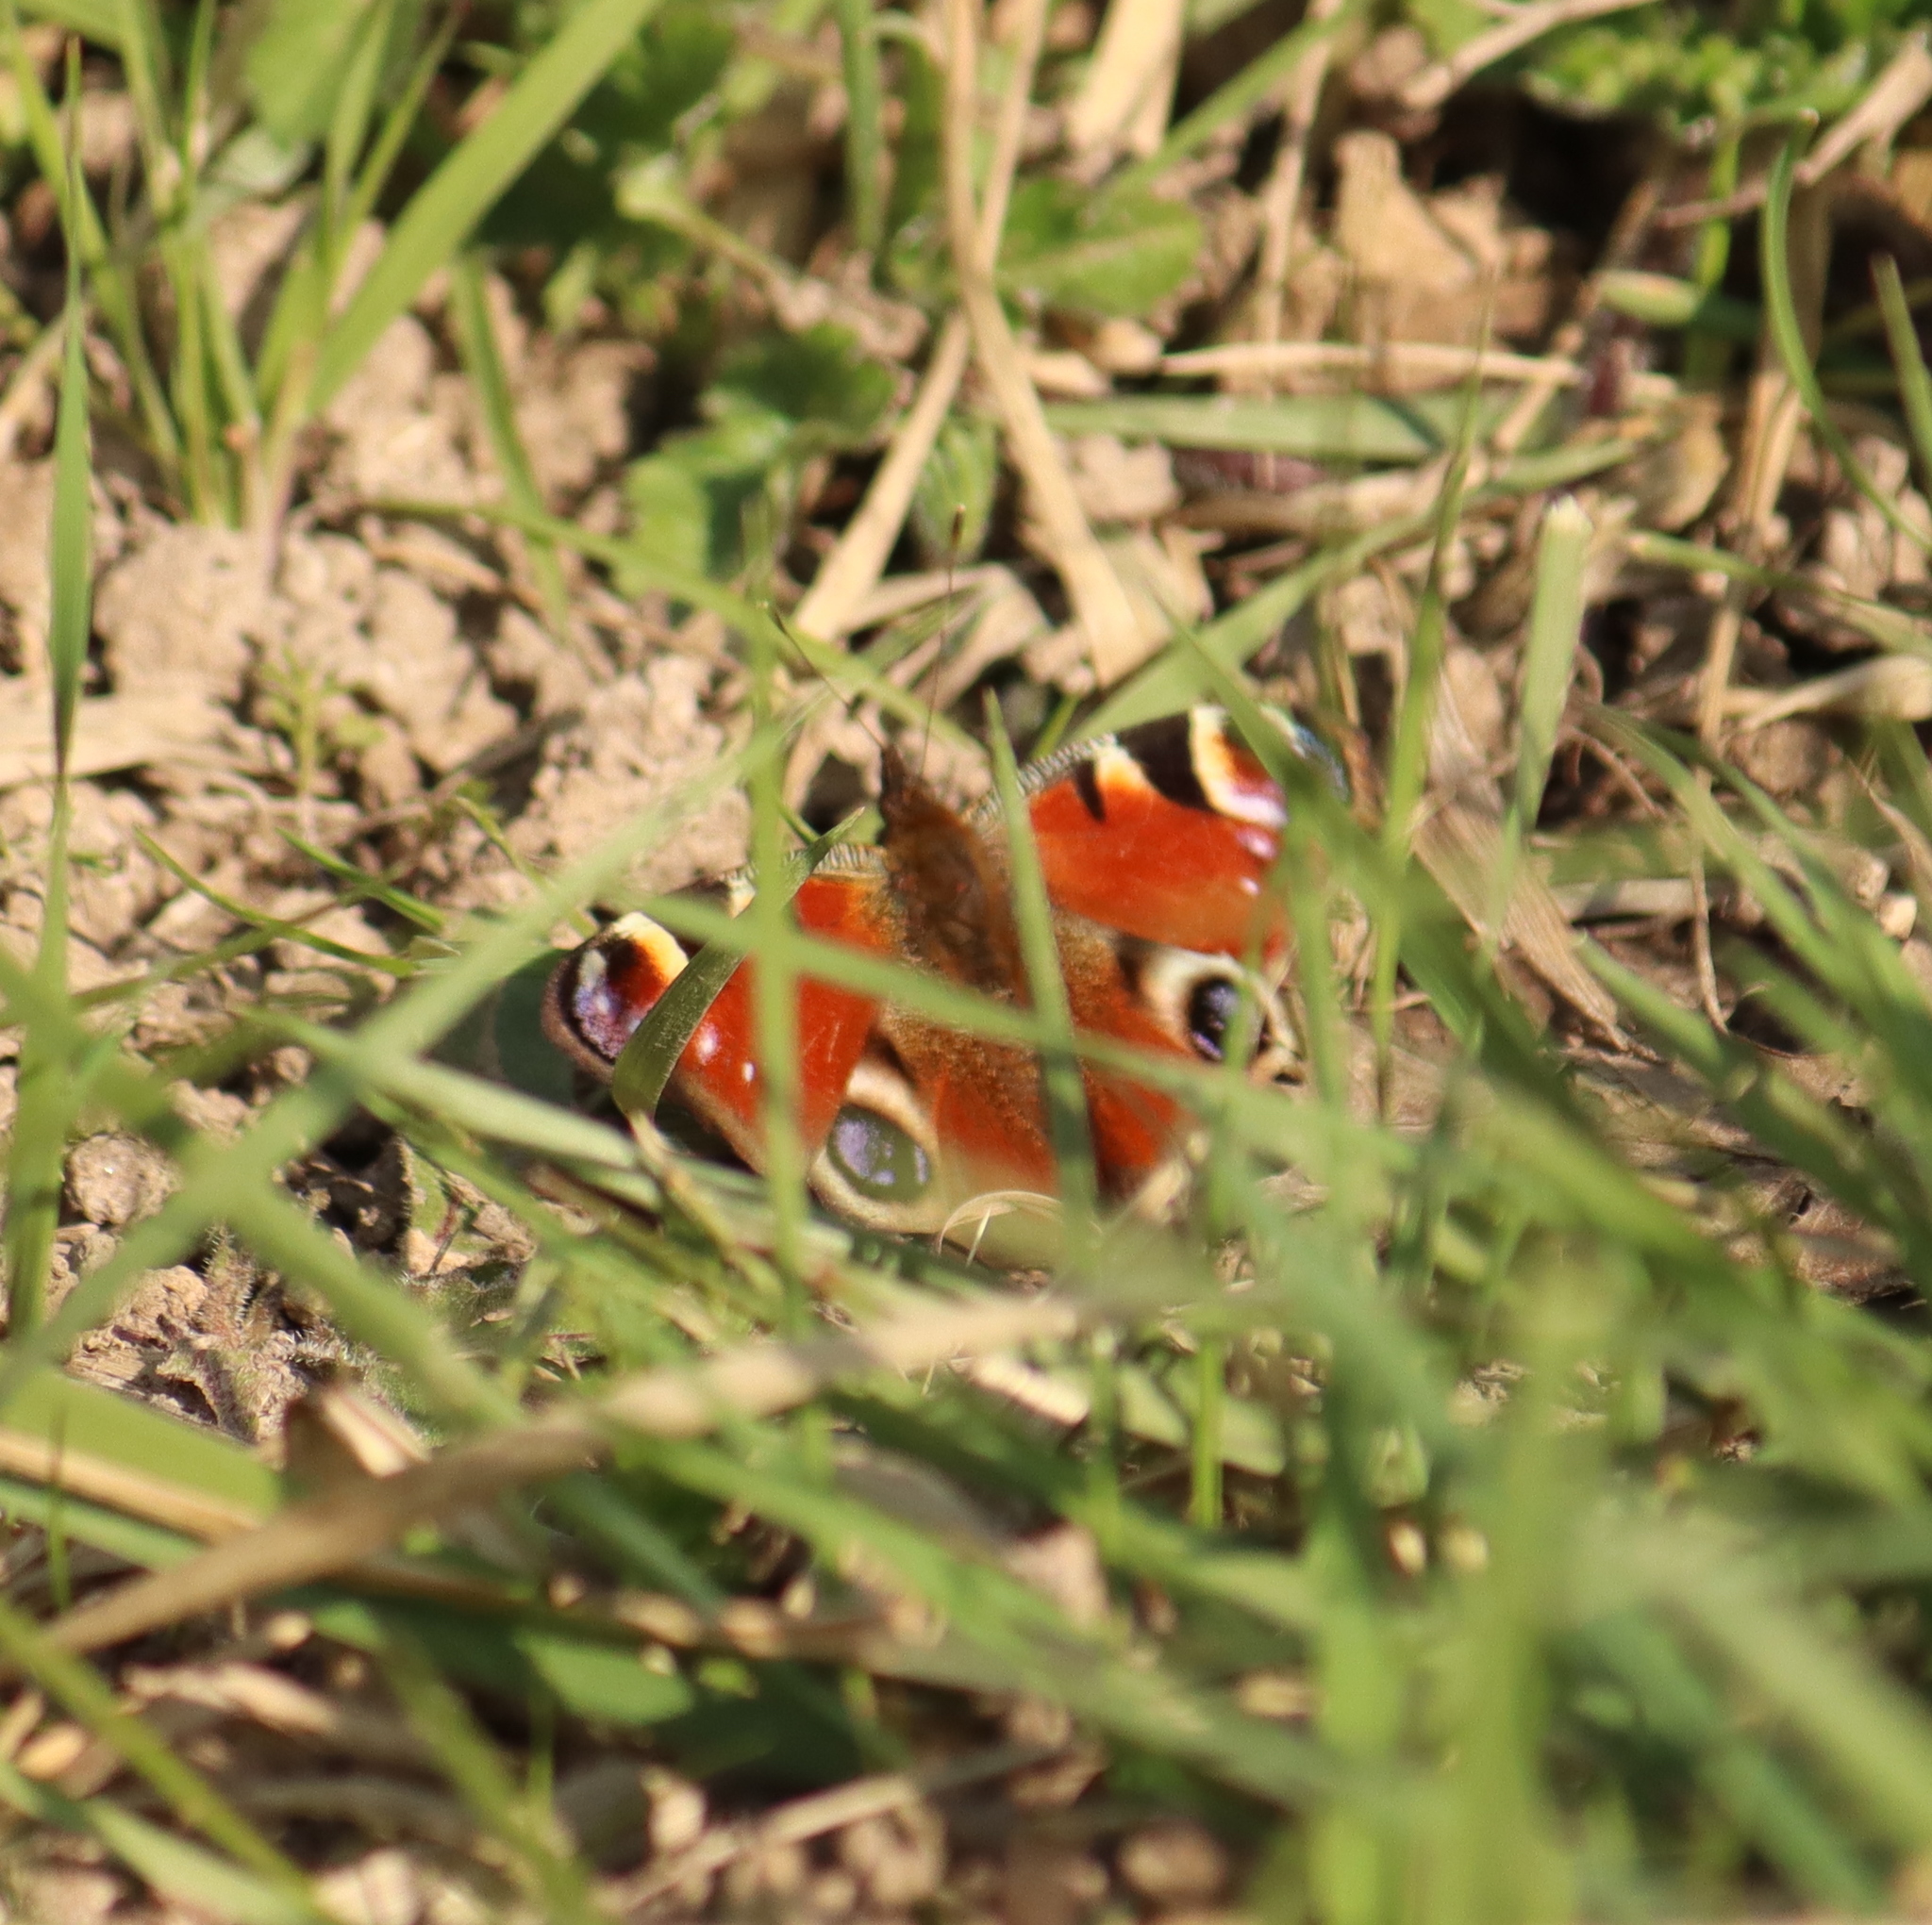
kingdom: Animalia
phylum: Arthropoda
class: Insecta
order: Lepidoptera
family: Nymphalidae
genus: Aglais
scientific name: Aglais io
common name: Peacock
